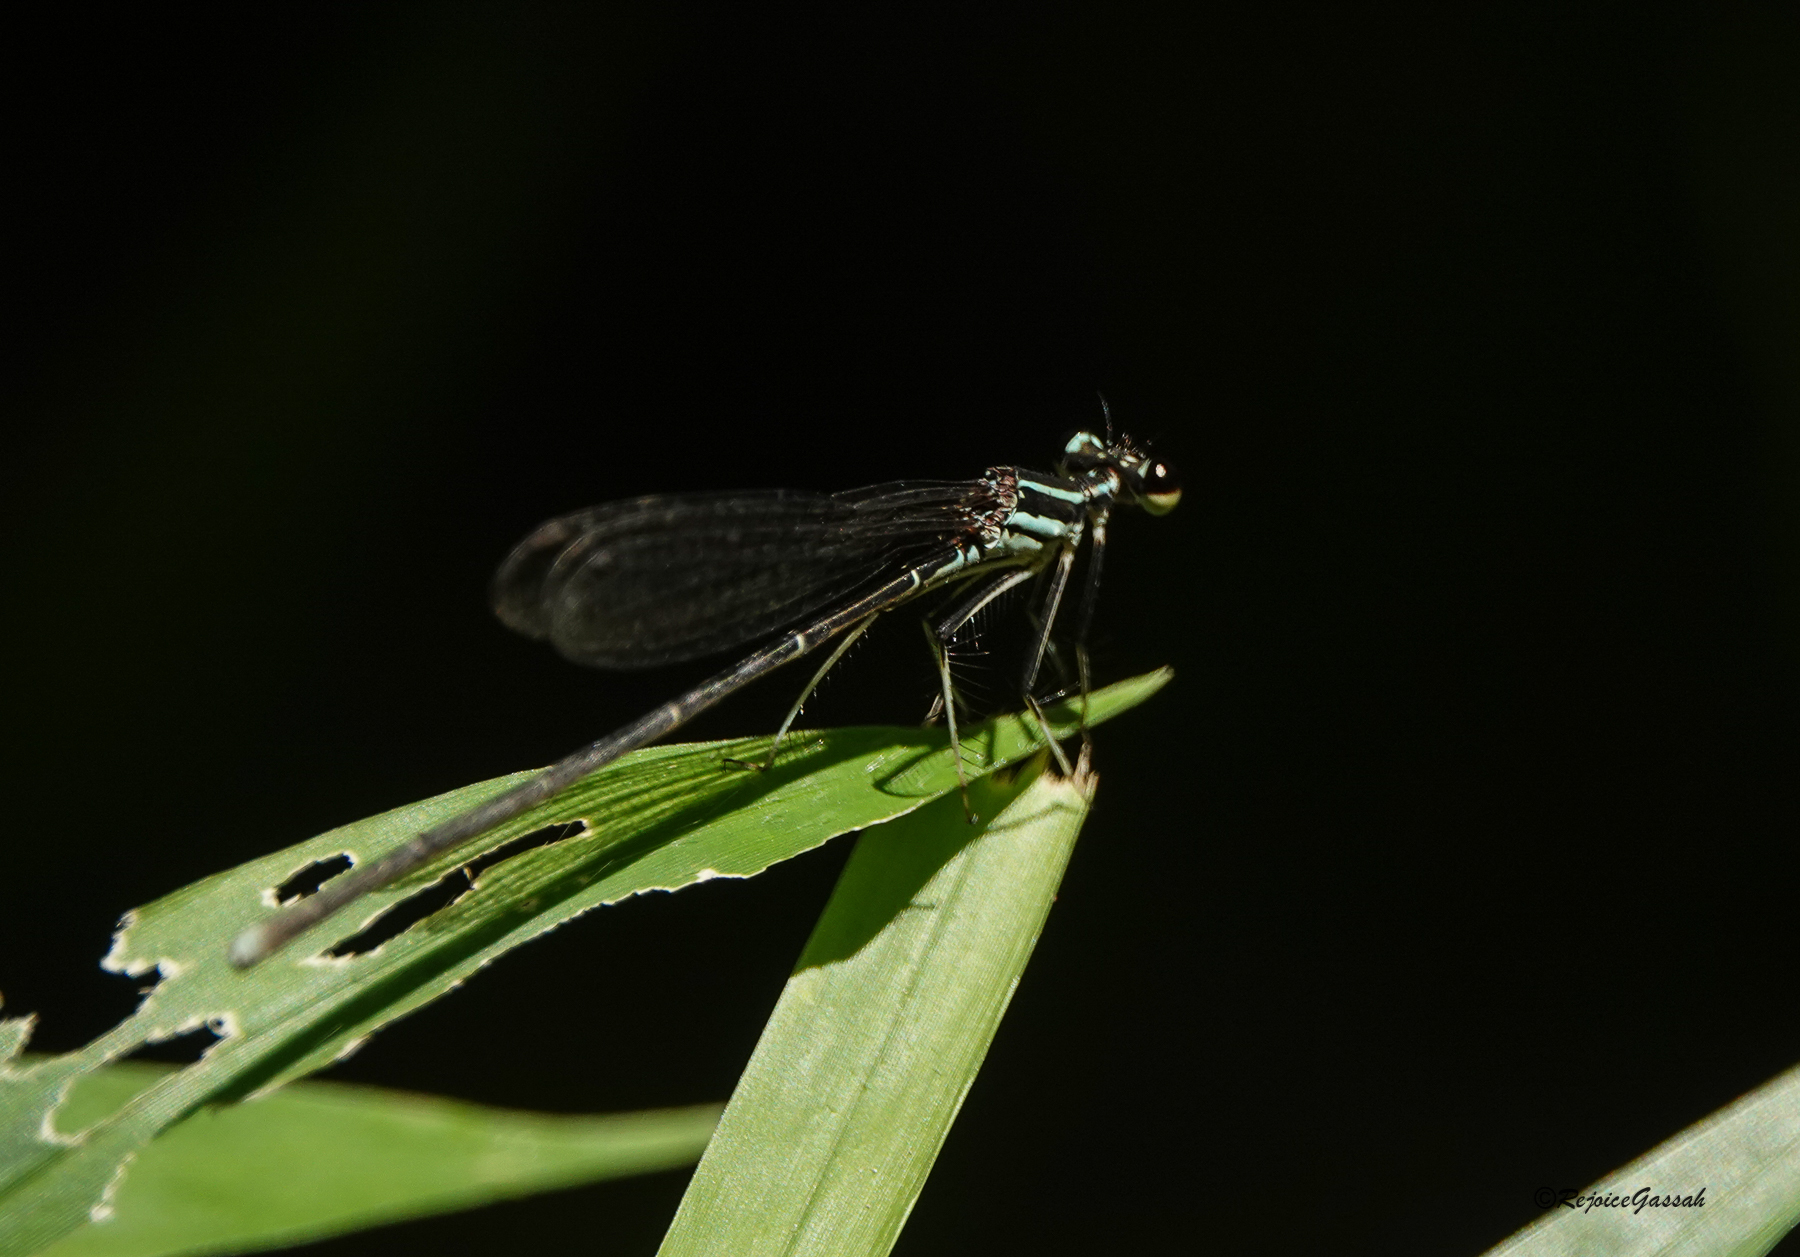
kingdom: Animalia
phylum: Arthropoda
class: Insecta
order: Odonata
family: Platycnemididae
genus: Pseudocopera
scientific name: Pseudocopera ciliata
